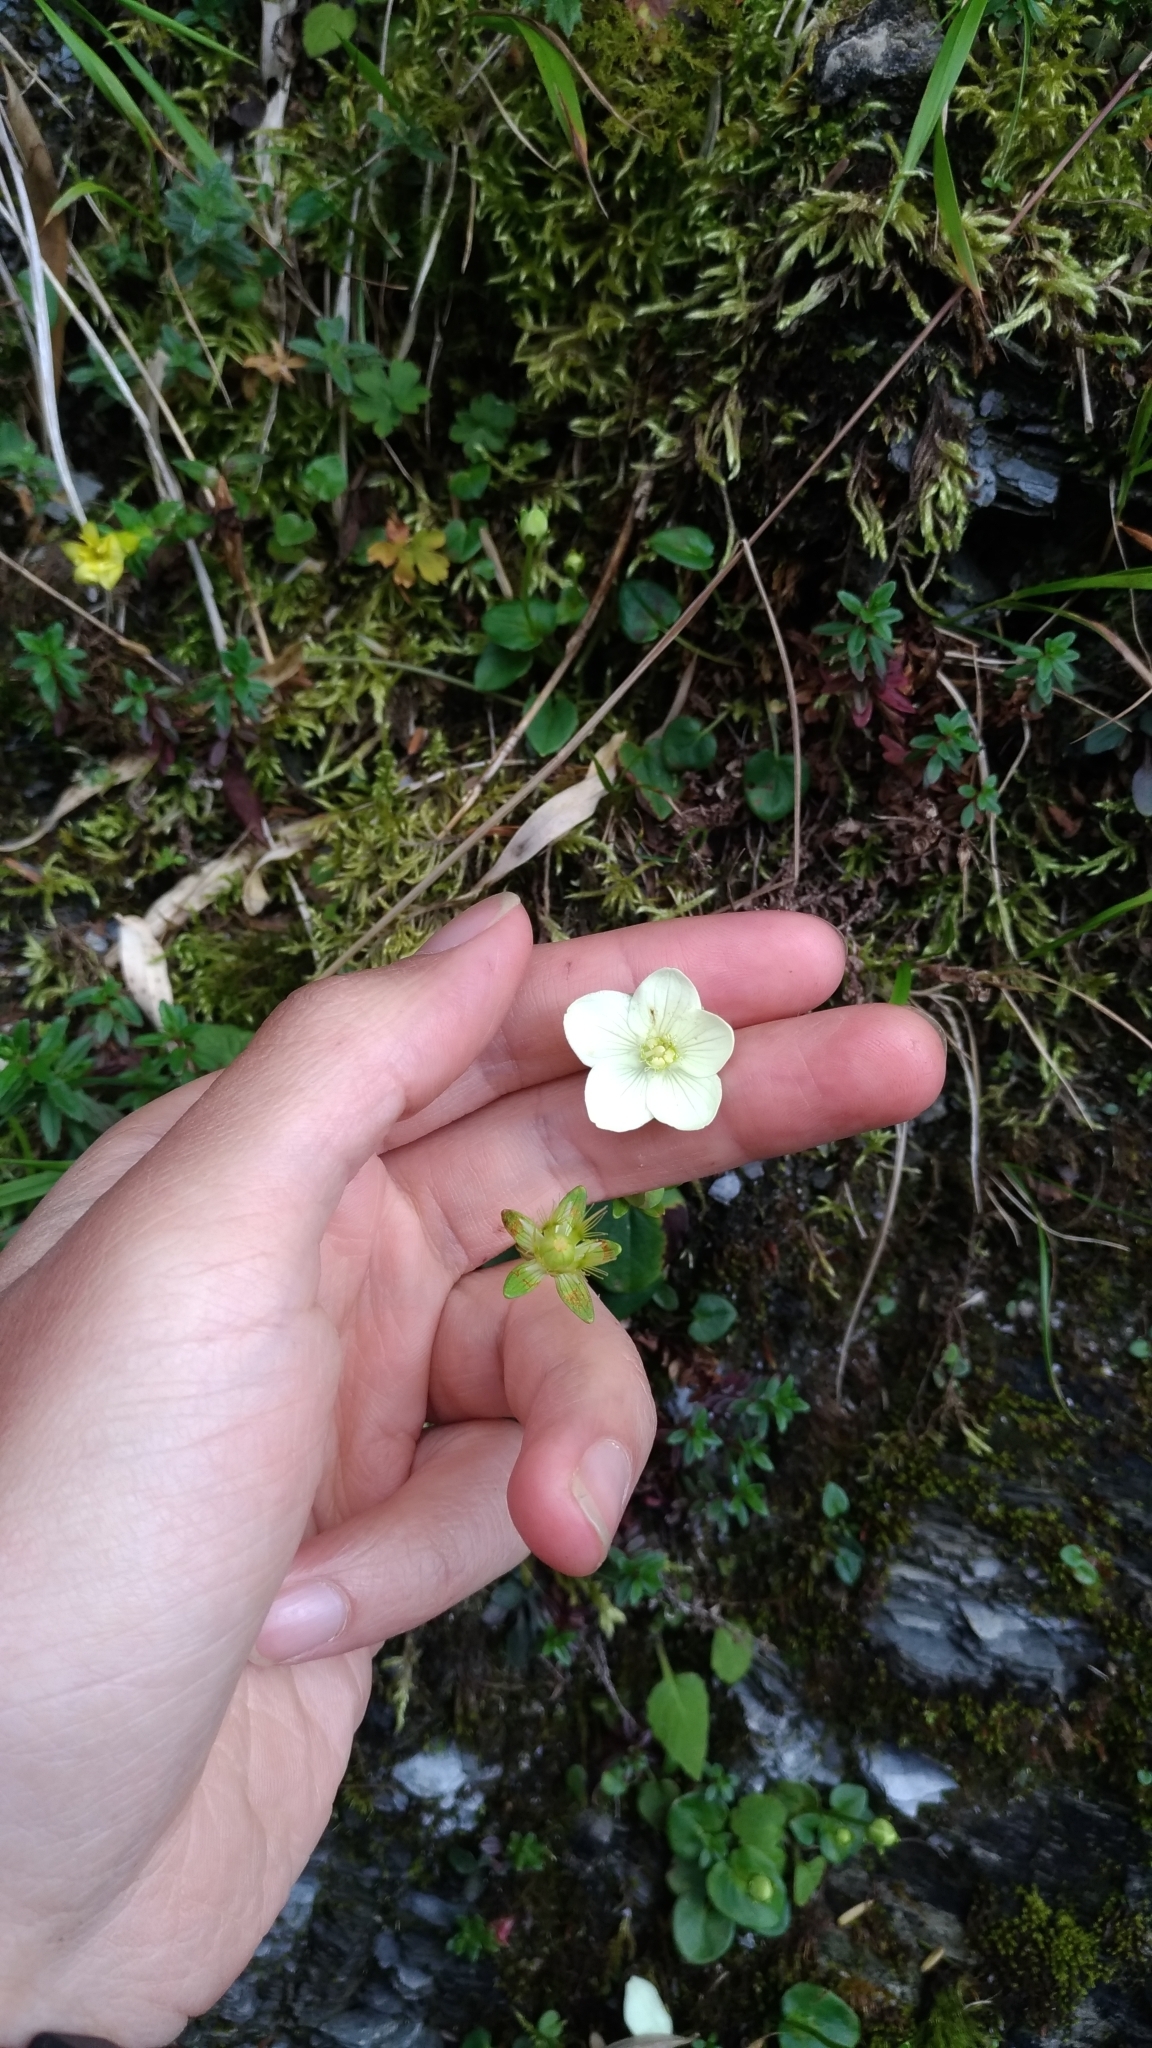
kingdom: Plantae
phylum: Tracheophyta
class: Magnoliopsida
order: Celastrales
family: Parnassiaceae
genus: Parnassia
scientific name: Parnassia palustris
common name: Grass-of-parnassus
